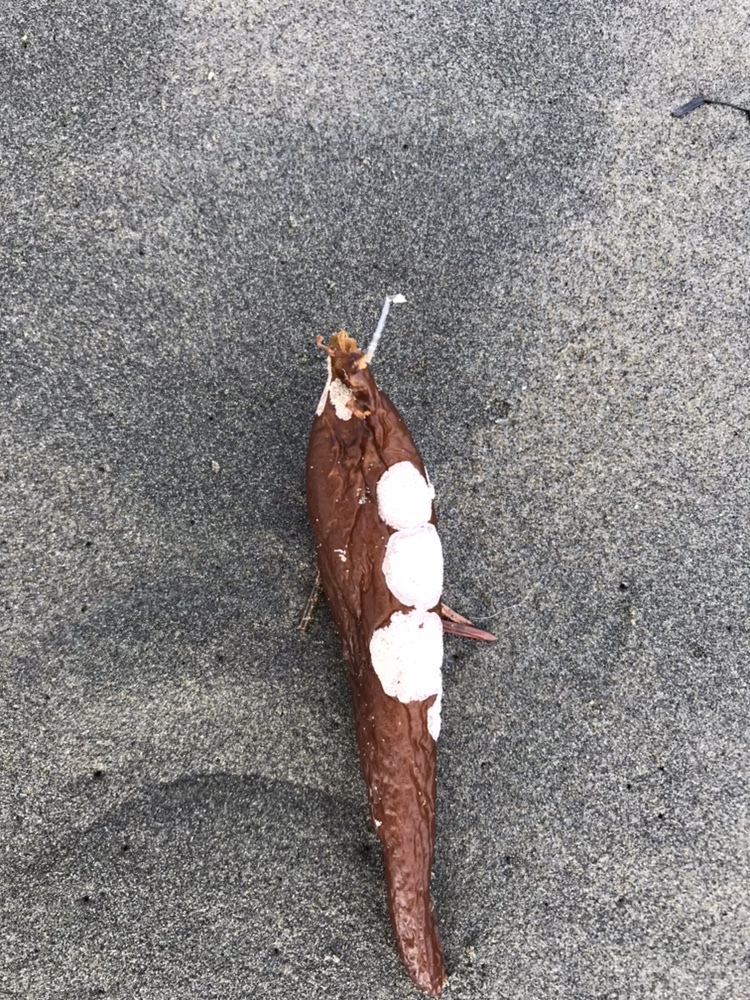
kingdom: Animalia
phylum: Bryozoa
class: Gymnolaemata
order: Cheilostomatida
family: Membraniporidae
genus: Membranipora
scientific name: Membranipora membranacea
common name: Sea mat
